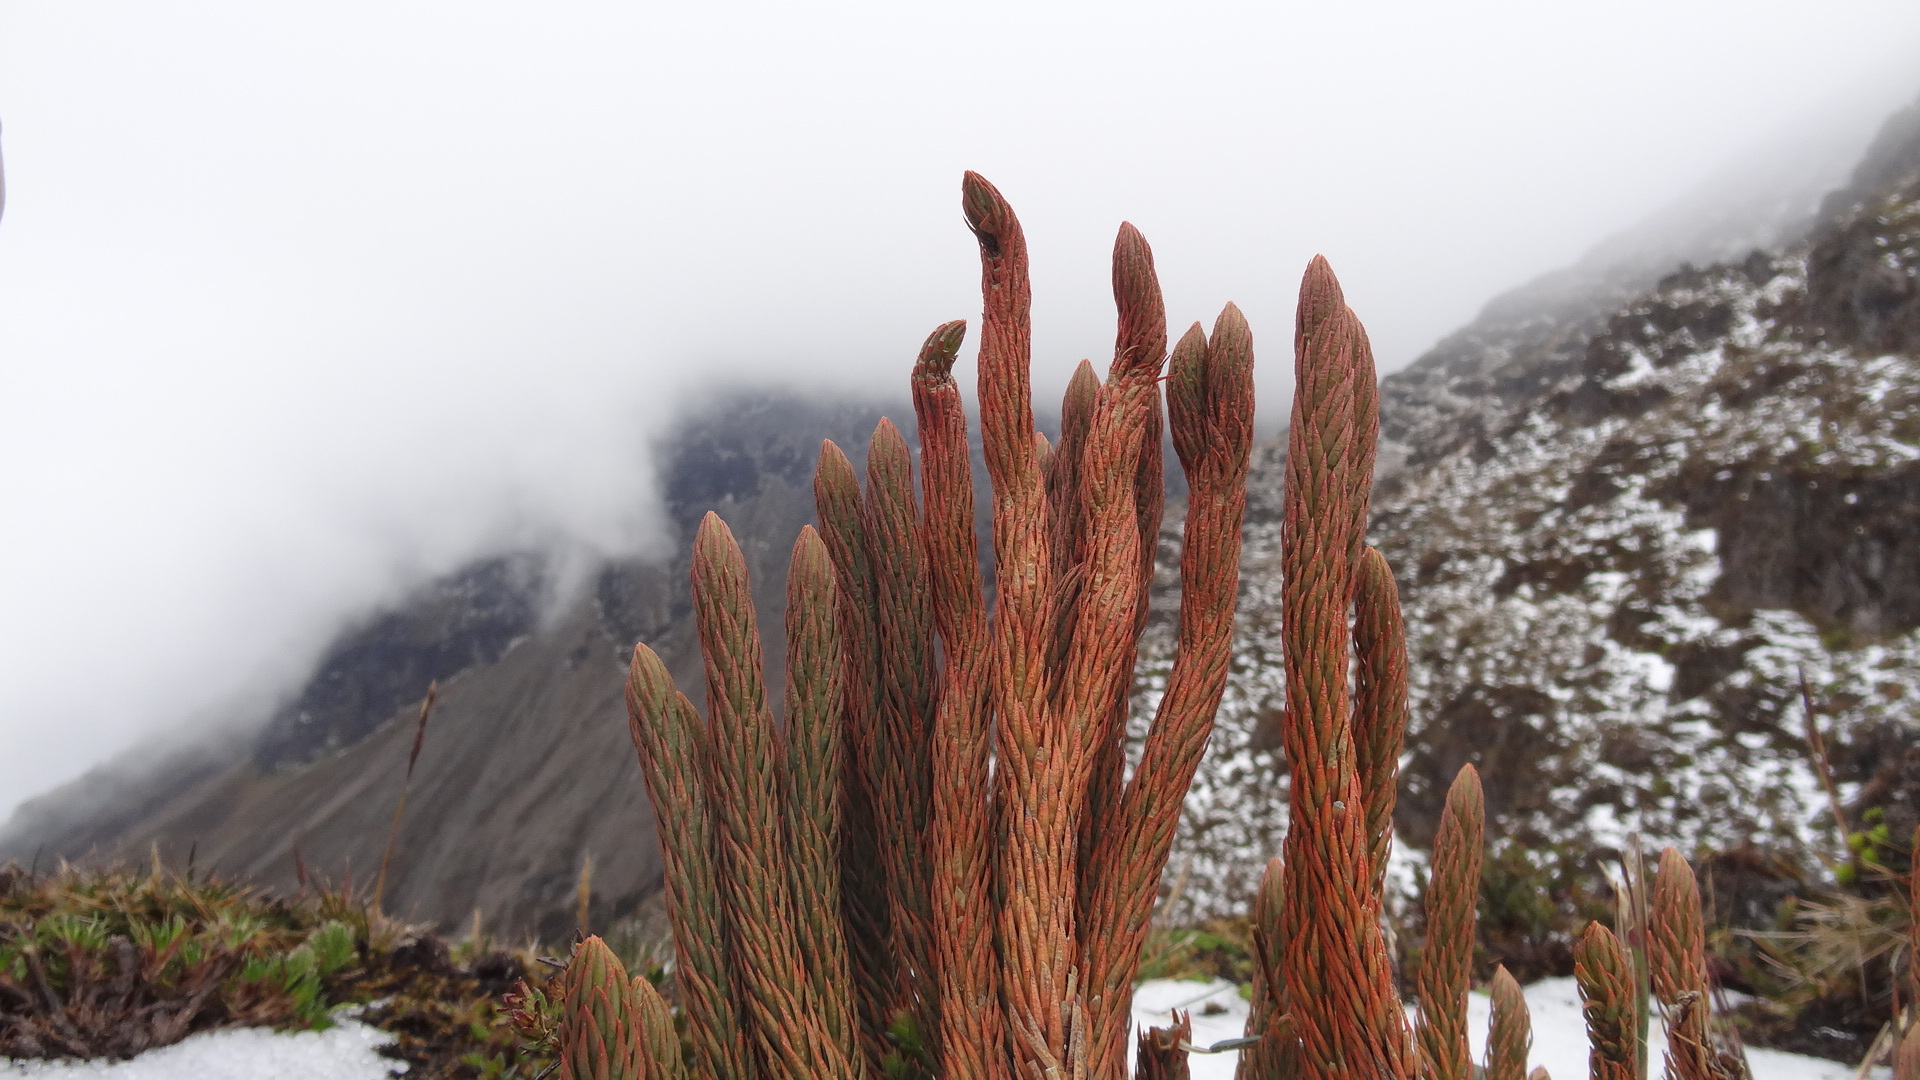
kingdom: Plantae
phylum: Tracheophyta
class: Lycopodiopsida
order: Lycopodiales
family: Lycopodiaceae
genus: Phlegmariurus
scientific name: Phlegmariurus crassus
